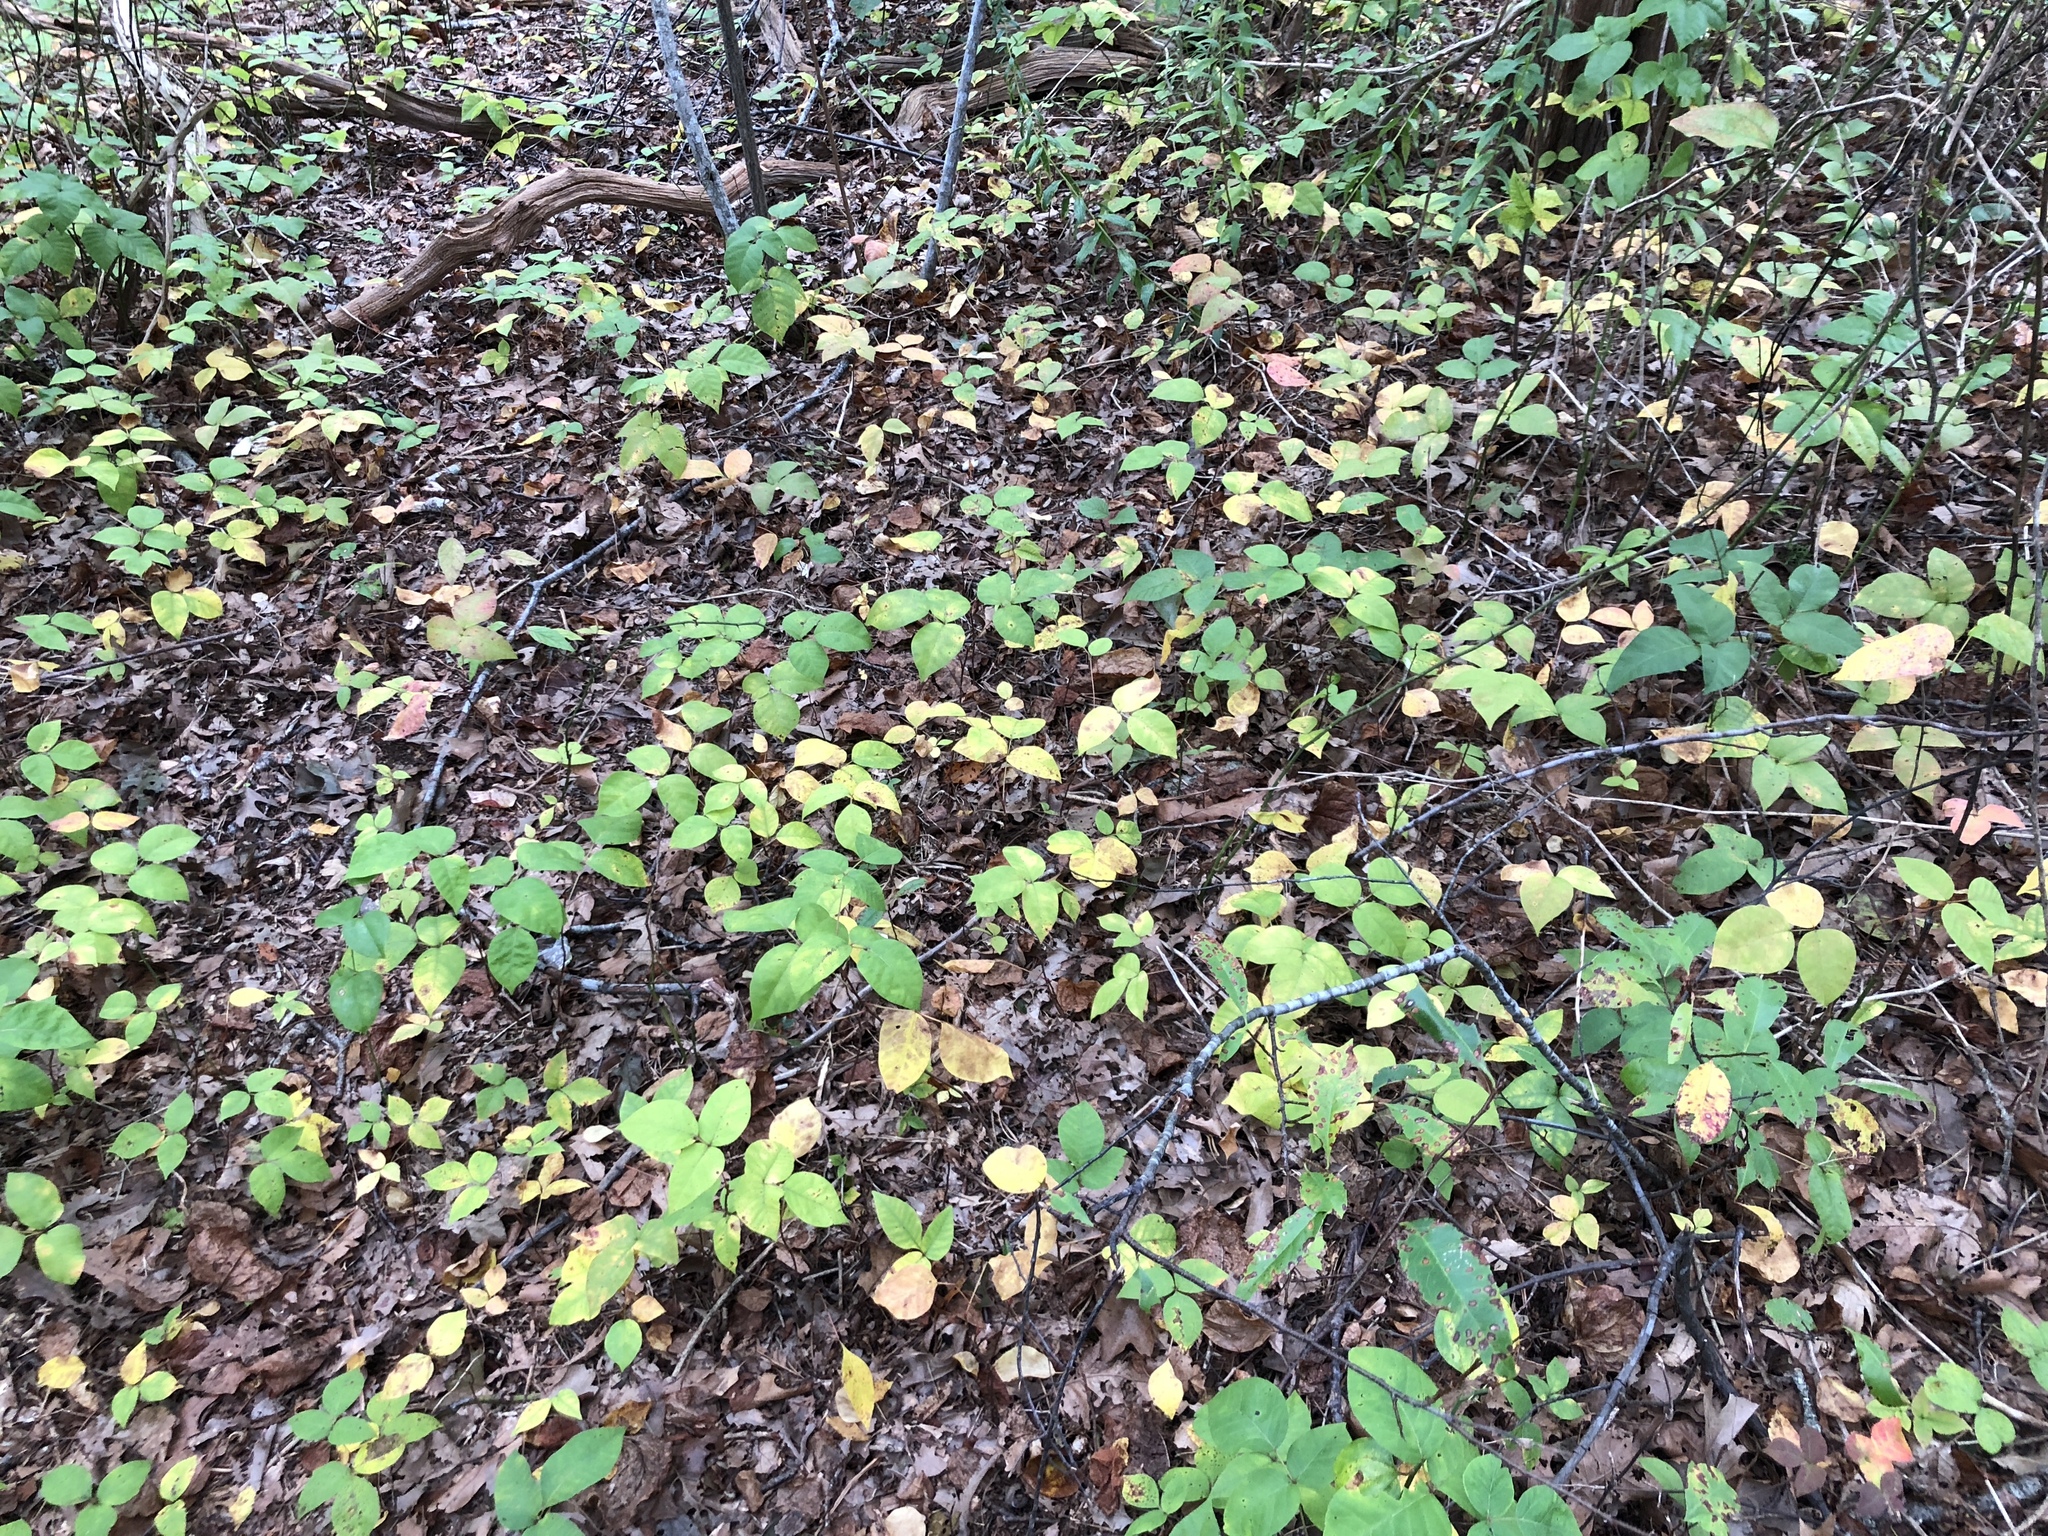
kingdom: Plantae
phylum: Tracheophyta
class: Magnoliopsida
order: Sapindales
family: Anacardiaceae
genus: Toxicodendron
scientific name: Toxicodendron radicans
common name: Poison ivy
